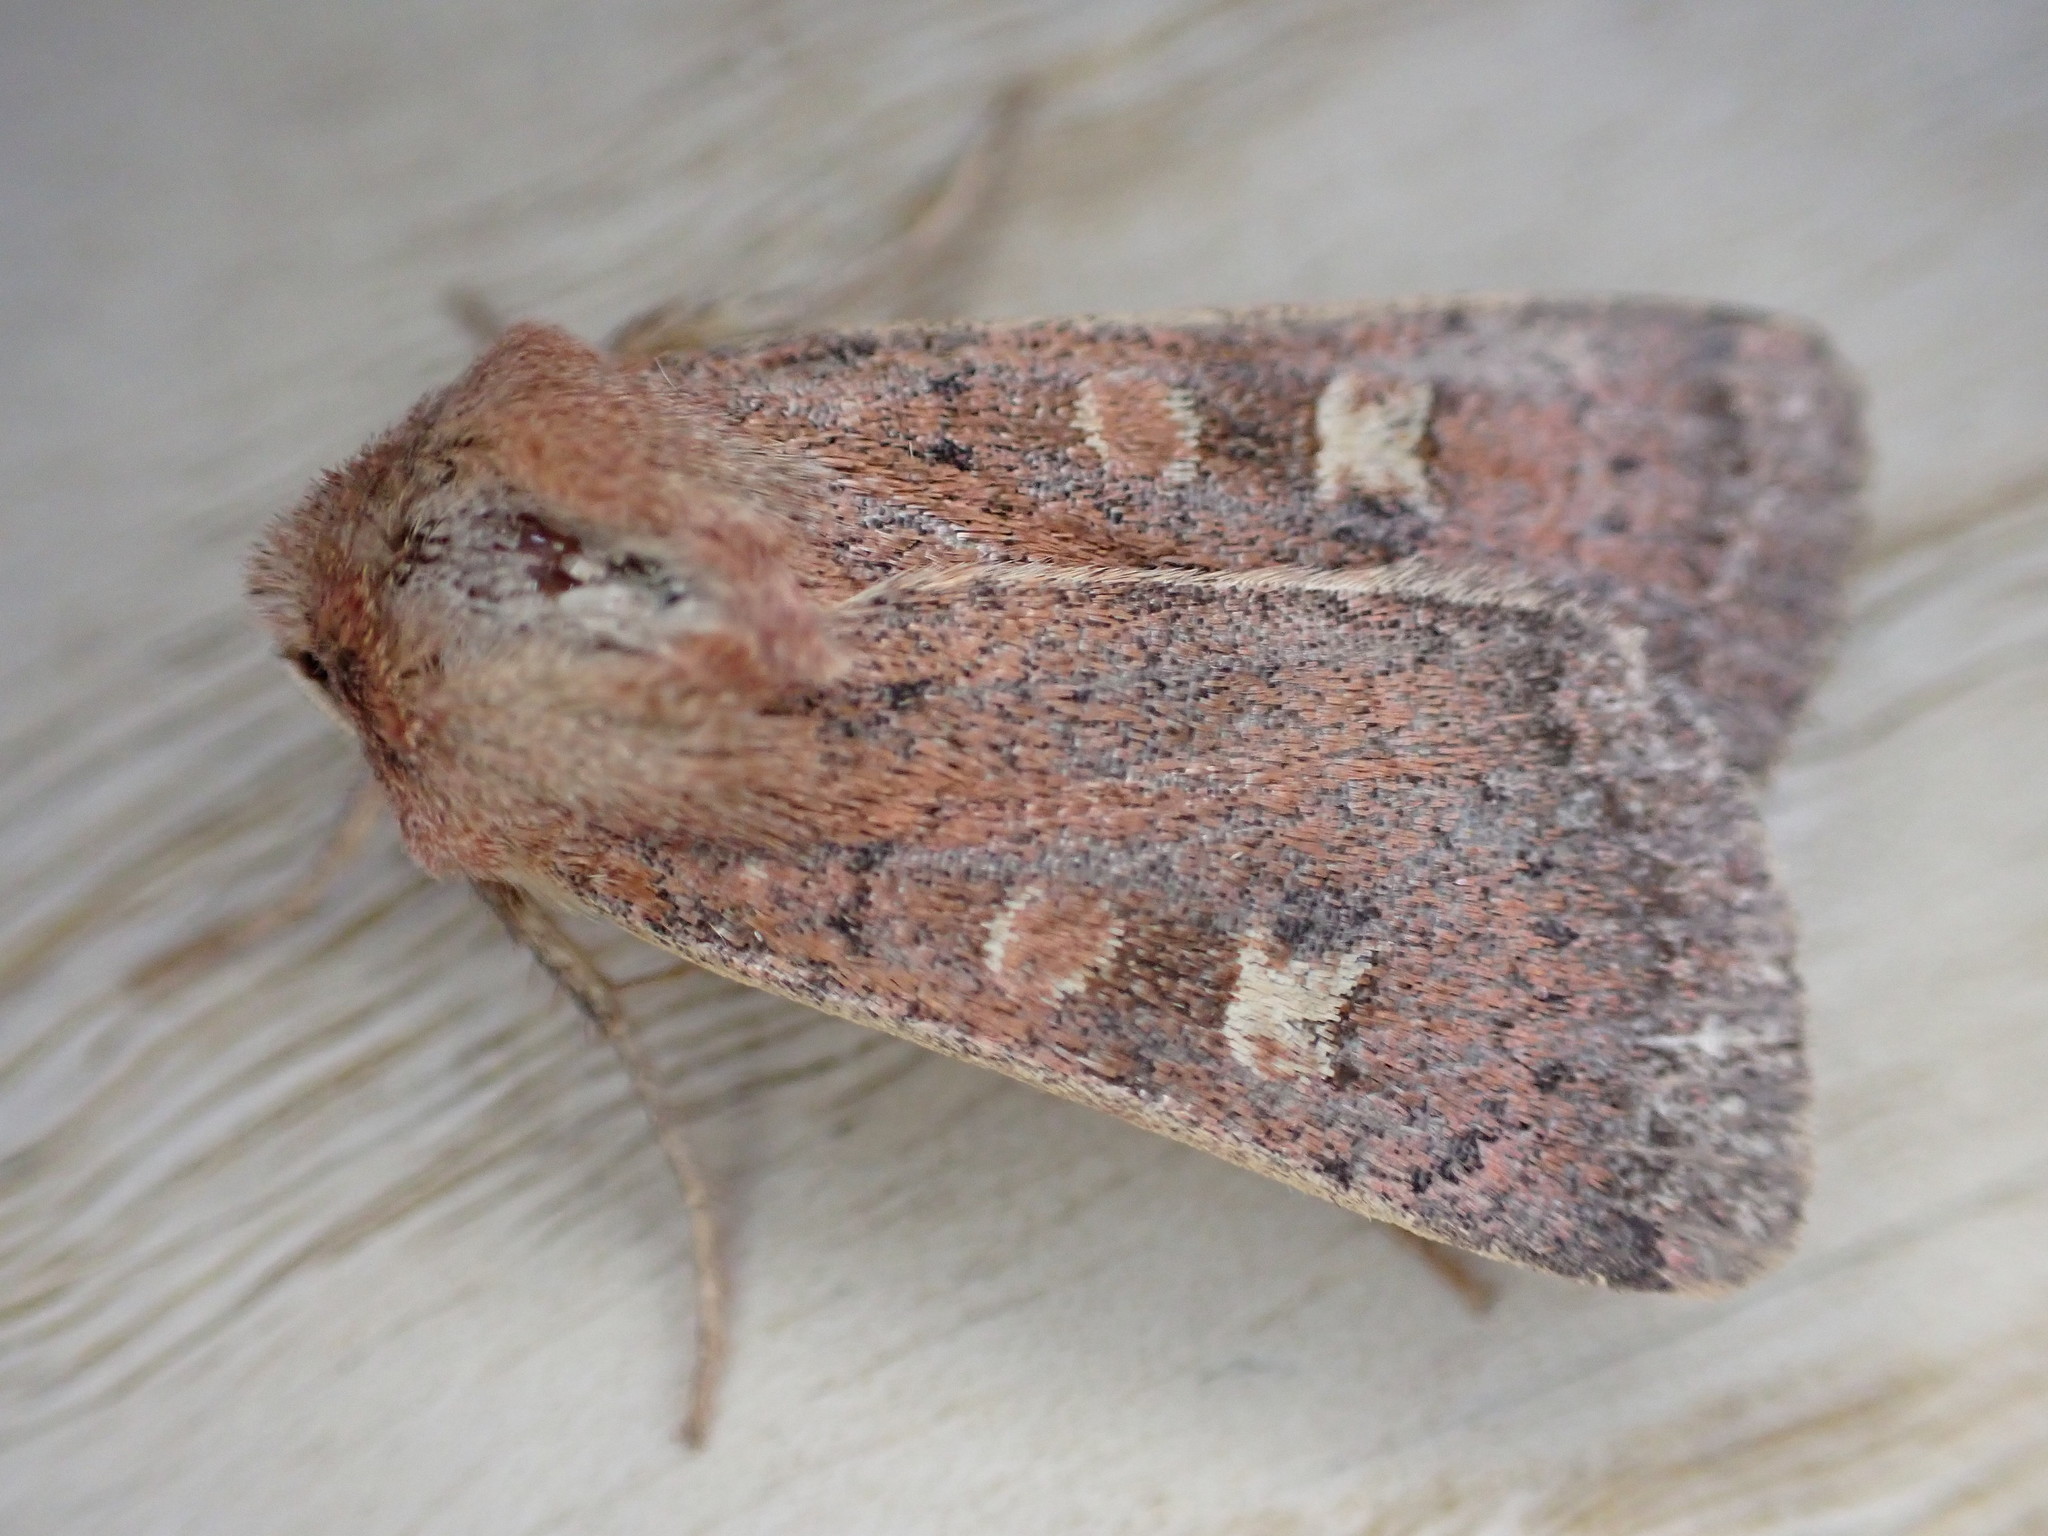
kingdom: Animalia
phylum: Arthropoda
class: Insecta
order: Lepidoptera
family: Noctuidae
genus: Xestia
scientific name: Xestia xanthographa
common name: Square-spot rustic
